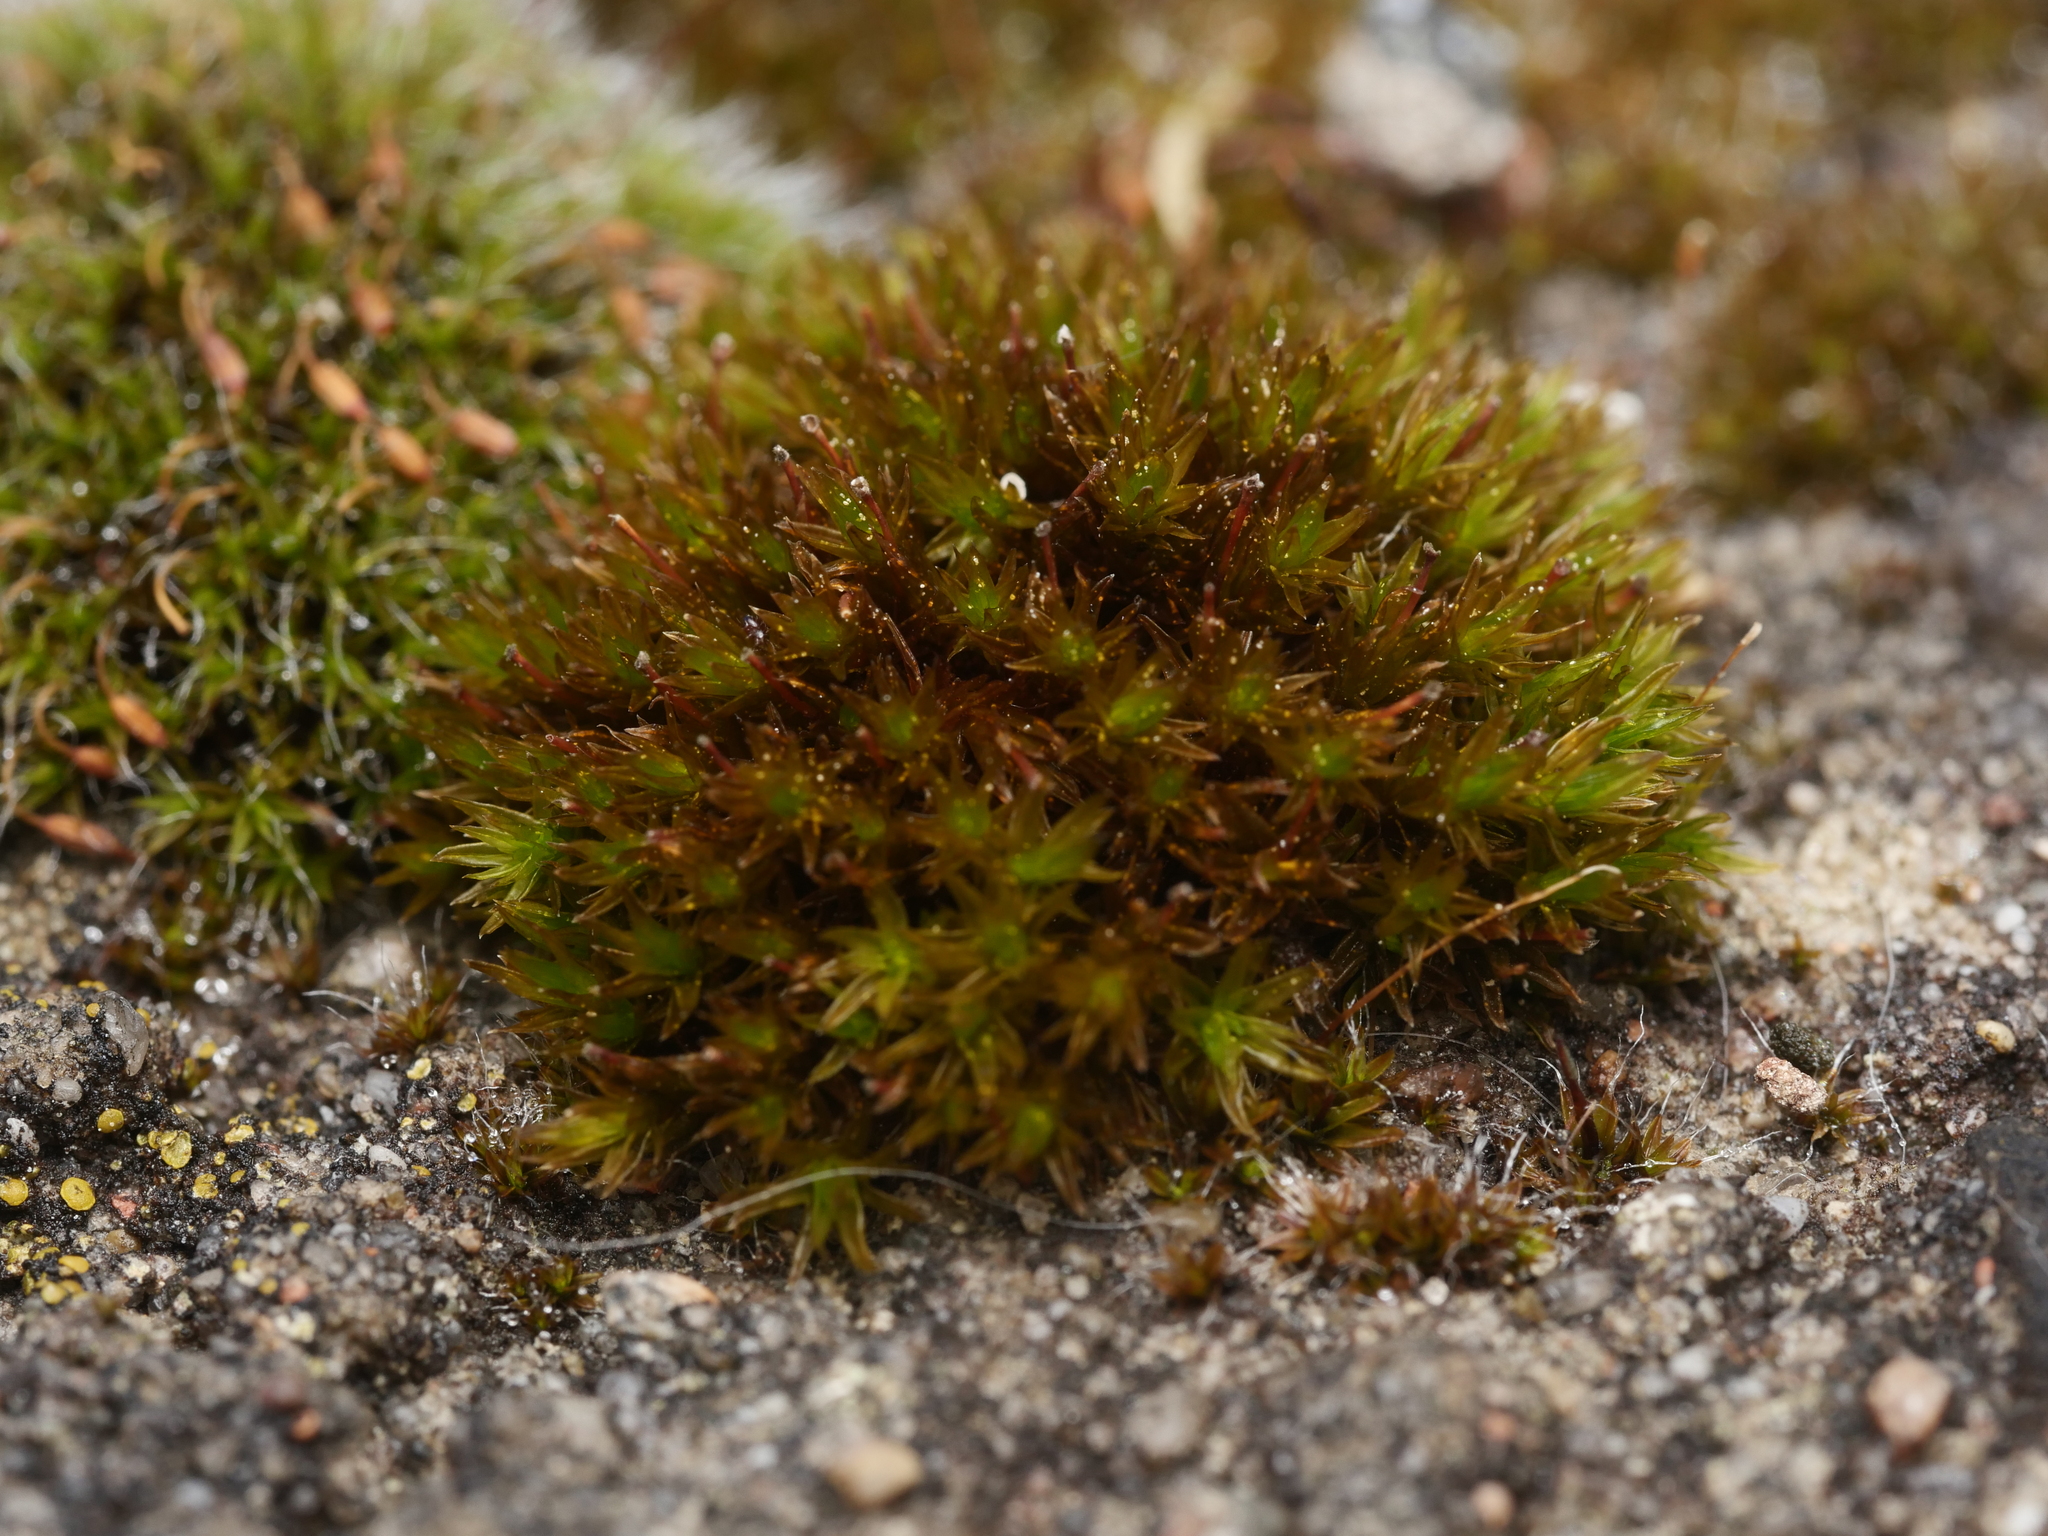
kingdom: Plantae
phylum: Bryophyta
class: Bryopsida
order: Orthotrichales
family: Orthotrichaceae
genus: Orthotrichum
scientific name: Orthotrichum anomalum
